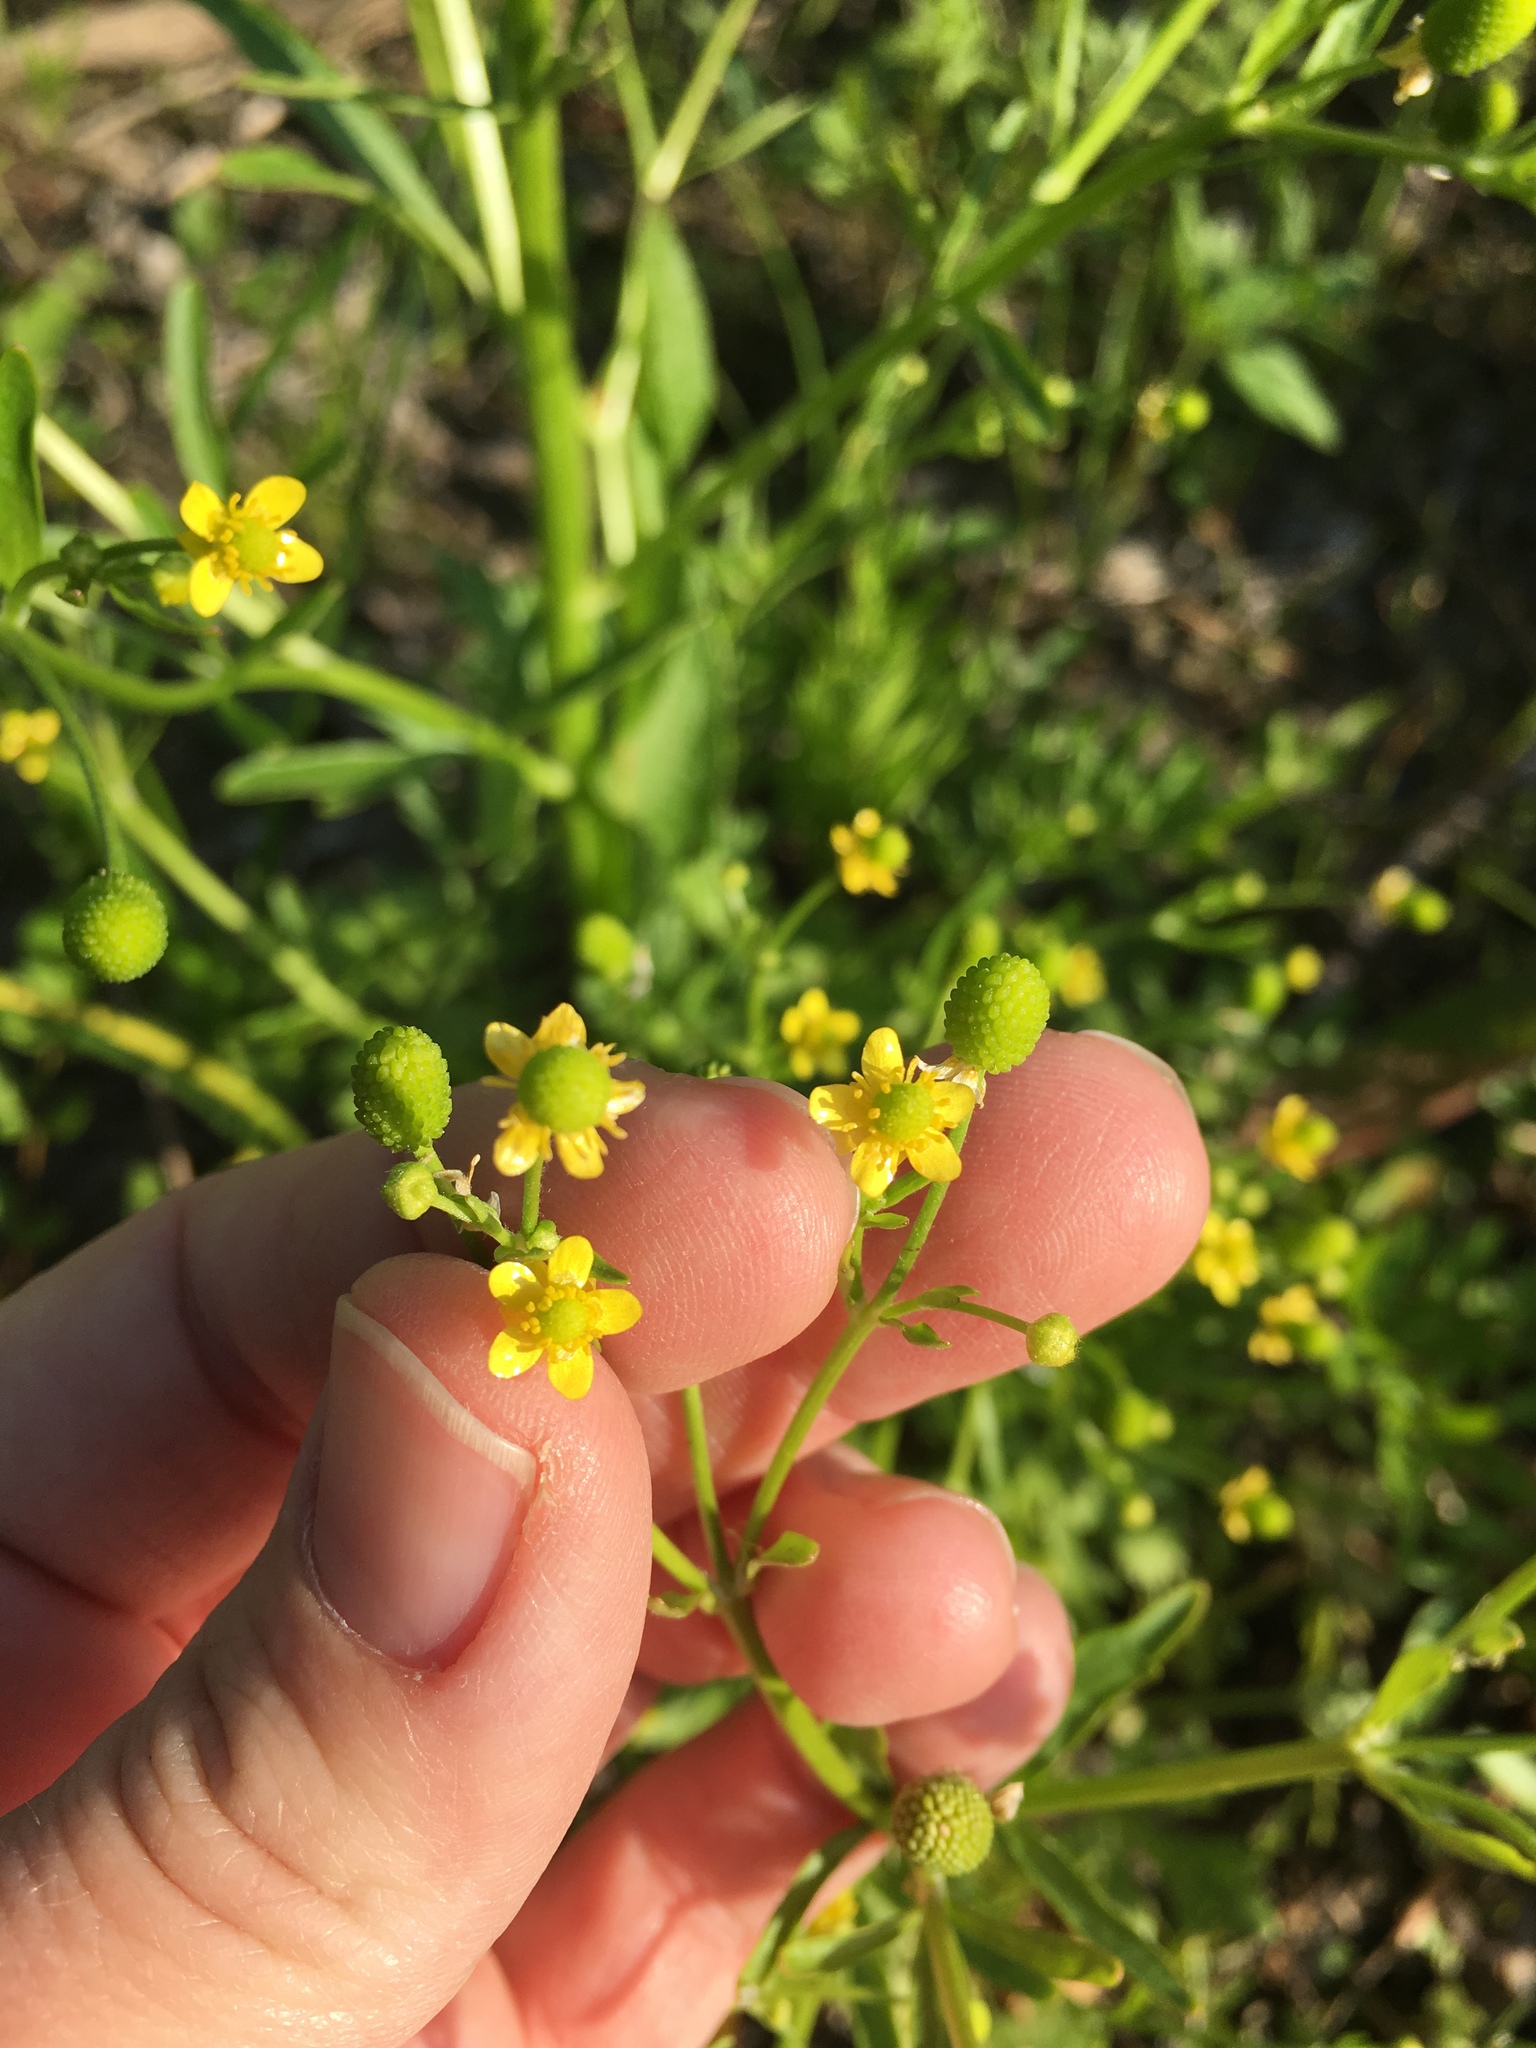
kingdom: Plantae
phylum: Tracheophyta
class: Magnoliopsida
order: Ranunculales
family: Ranunculaceae
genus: Ranunculus
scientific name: Ranunculus sceleratus
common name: Celery-leaved buttercup
